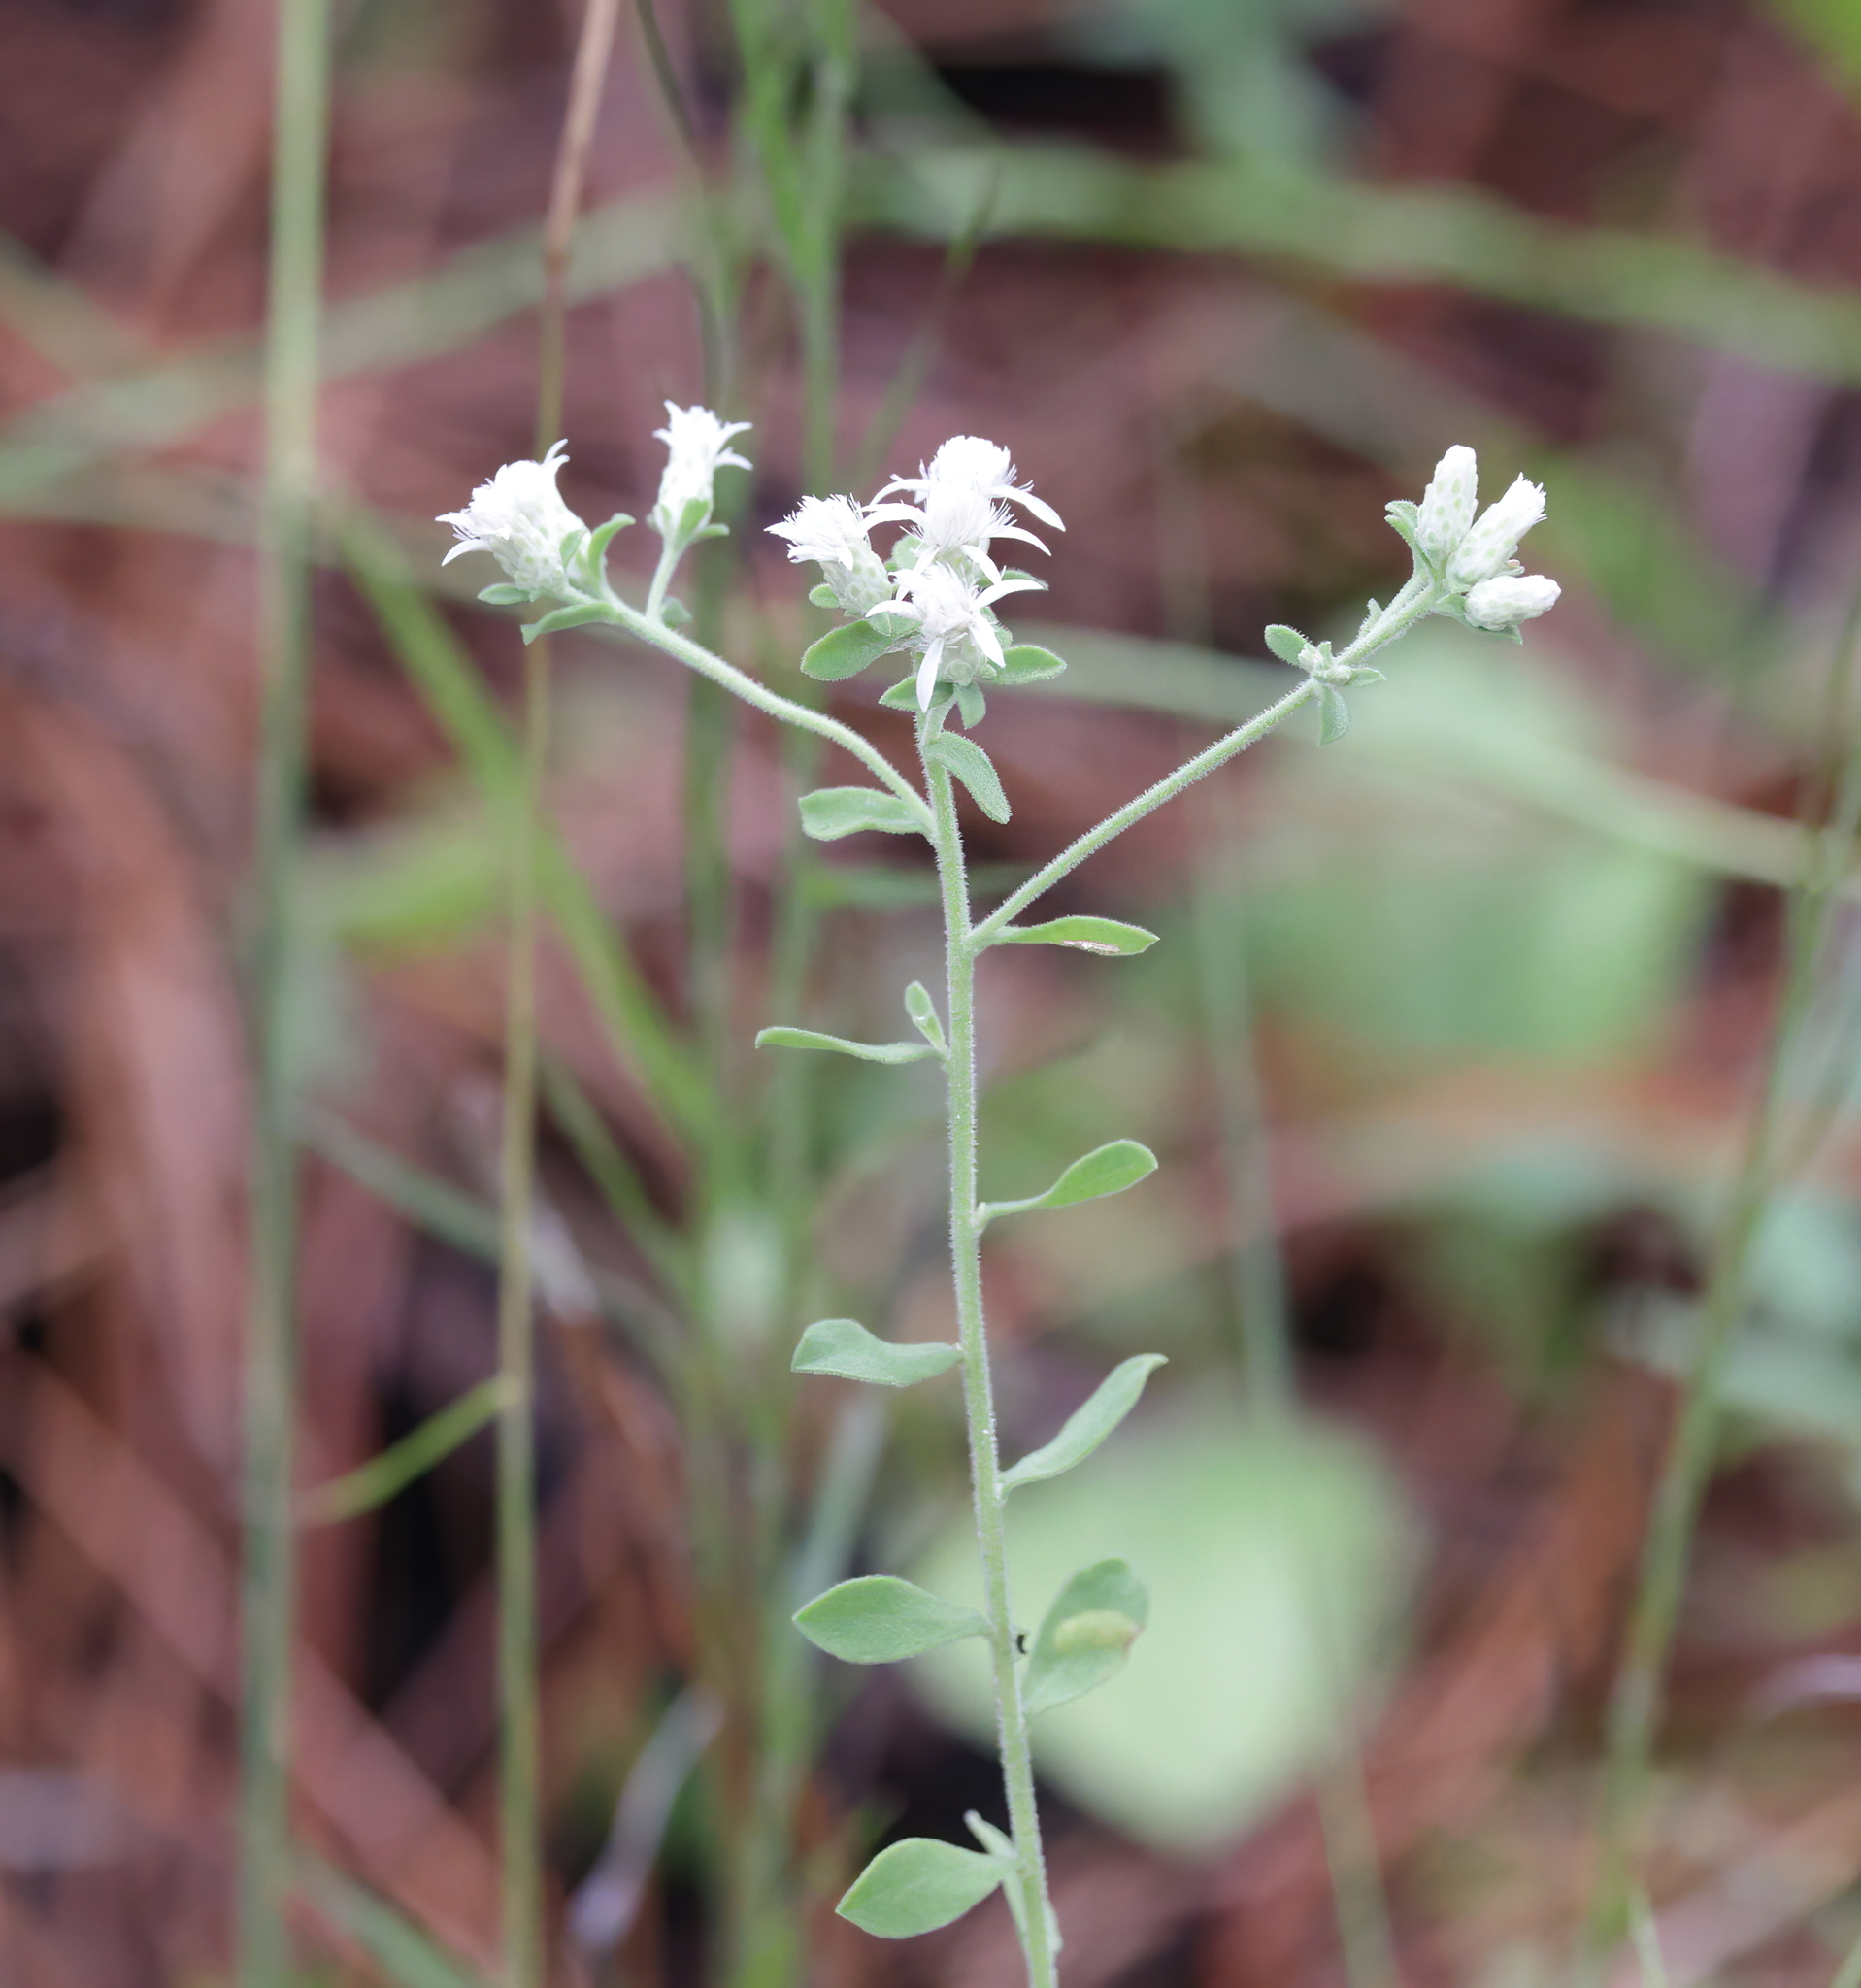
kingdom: Plantae
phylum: Tracheophyta
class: Magnoliopsida
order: Asterales
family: Asteraceae
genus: Sericocarpus
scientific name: Sericocarpus tortifolius
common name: Dixie aster
